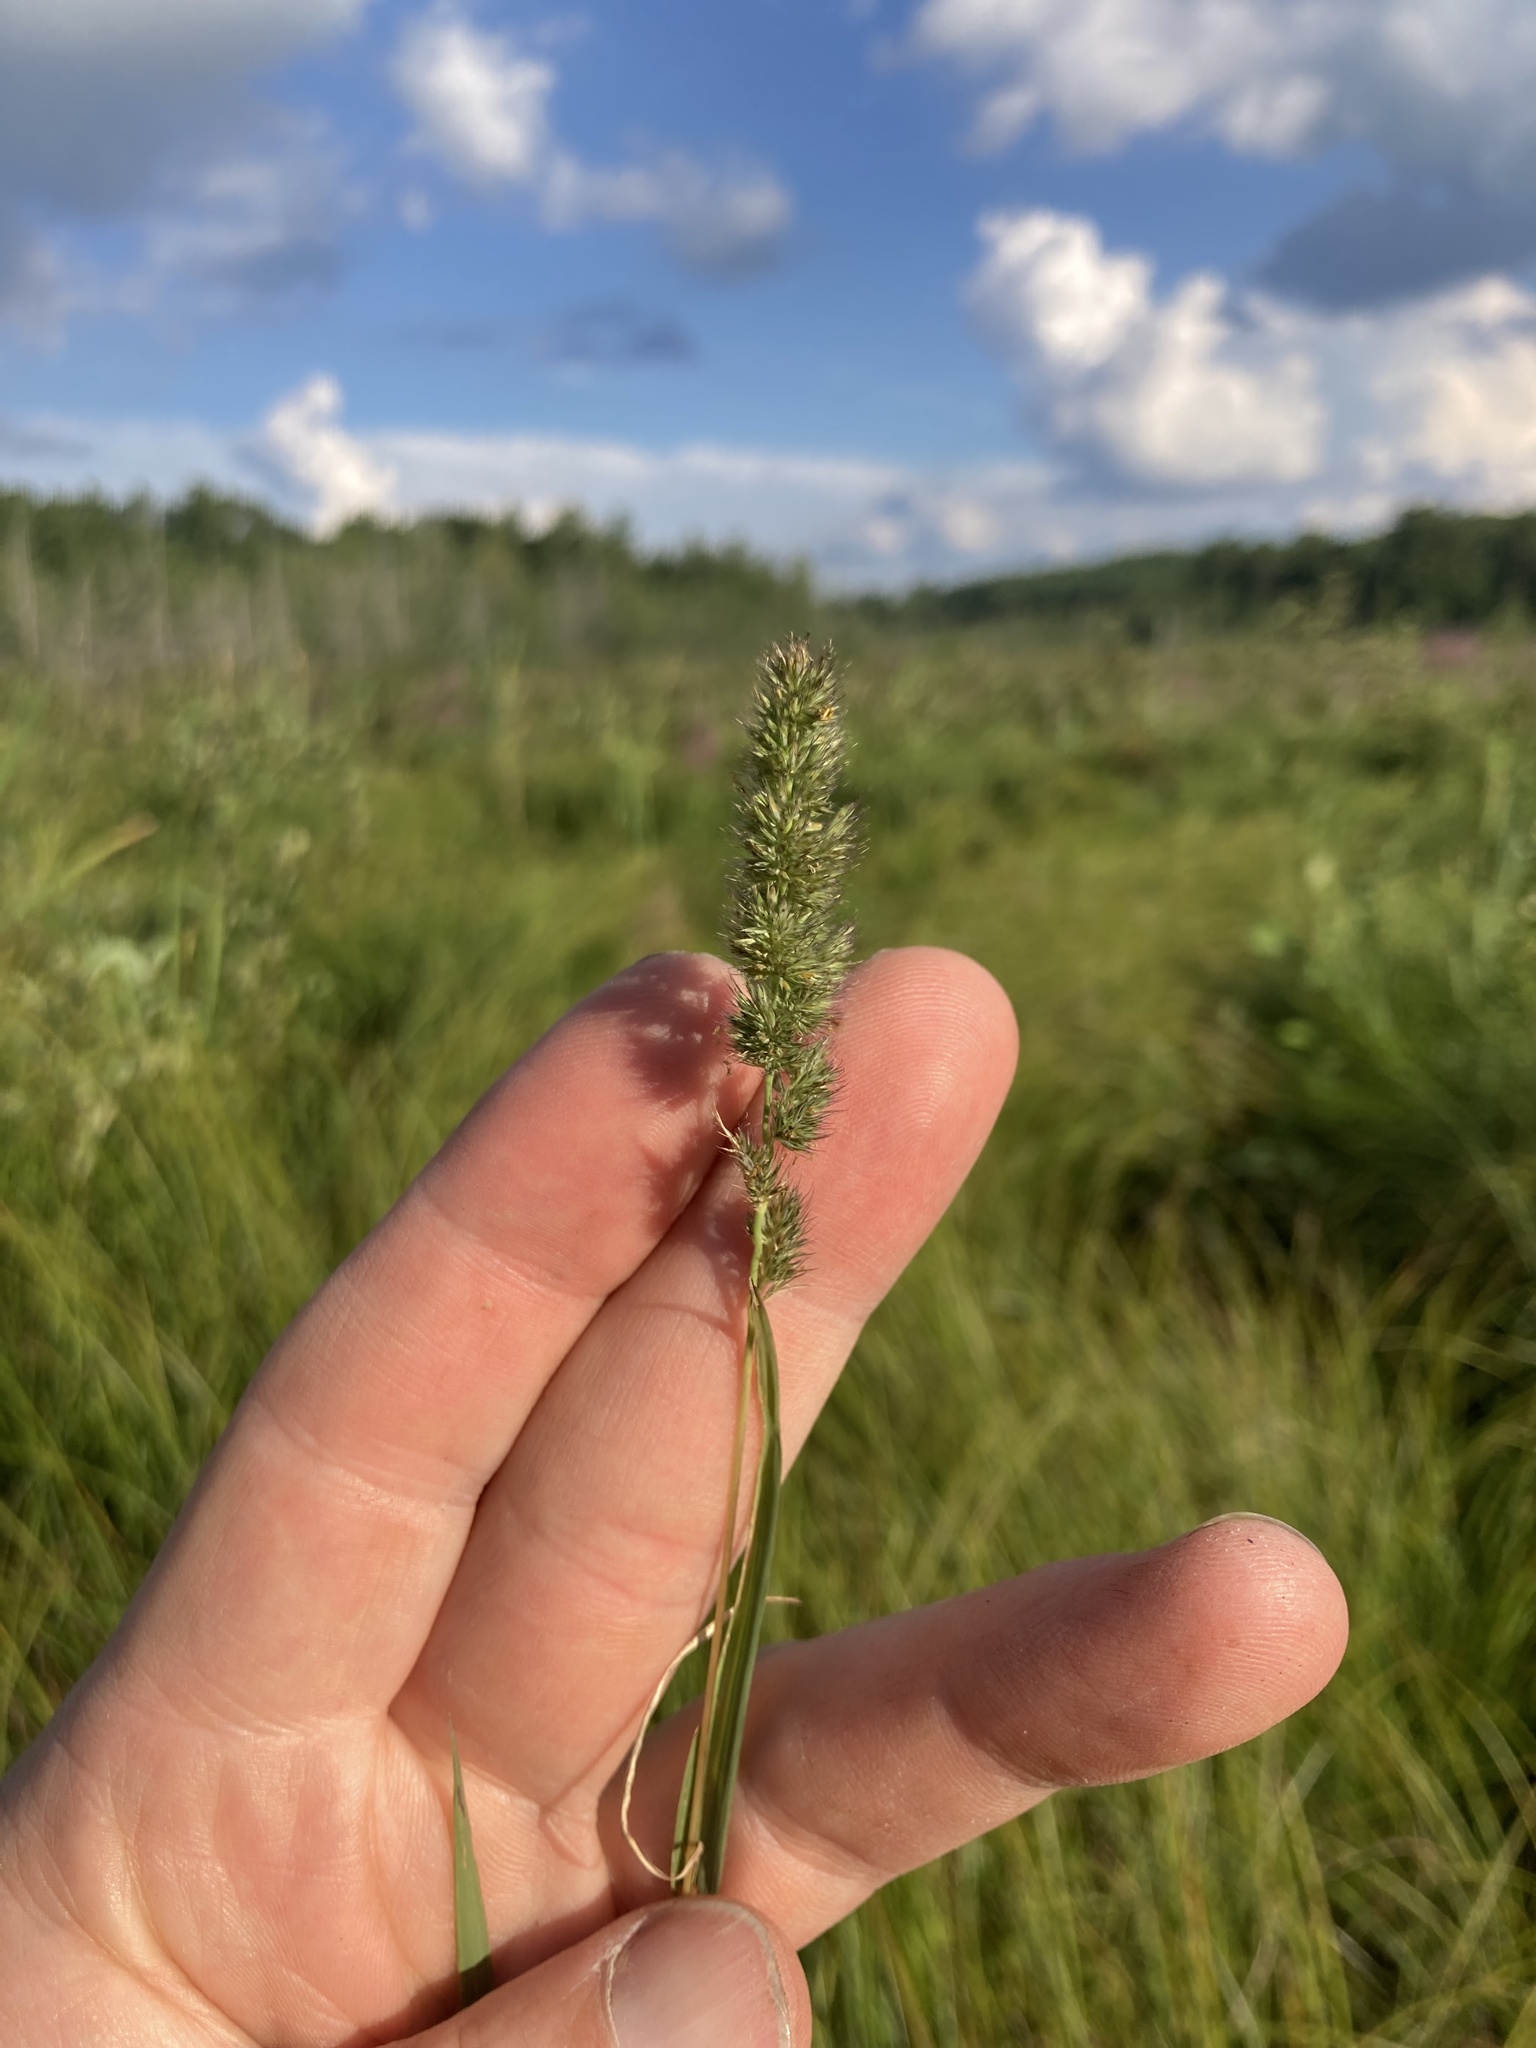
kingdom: Plantae
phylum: Tracheophyta
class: Liliopsida
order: Poales
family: Poaceae
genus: Muhlenbergia
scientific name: Muhlenbergia glomerata
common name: Bog muhly
